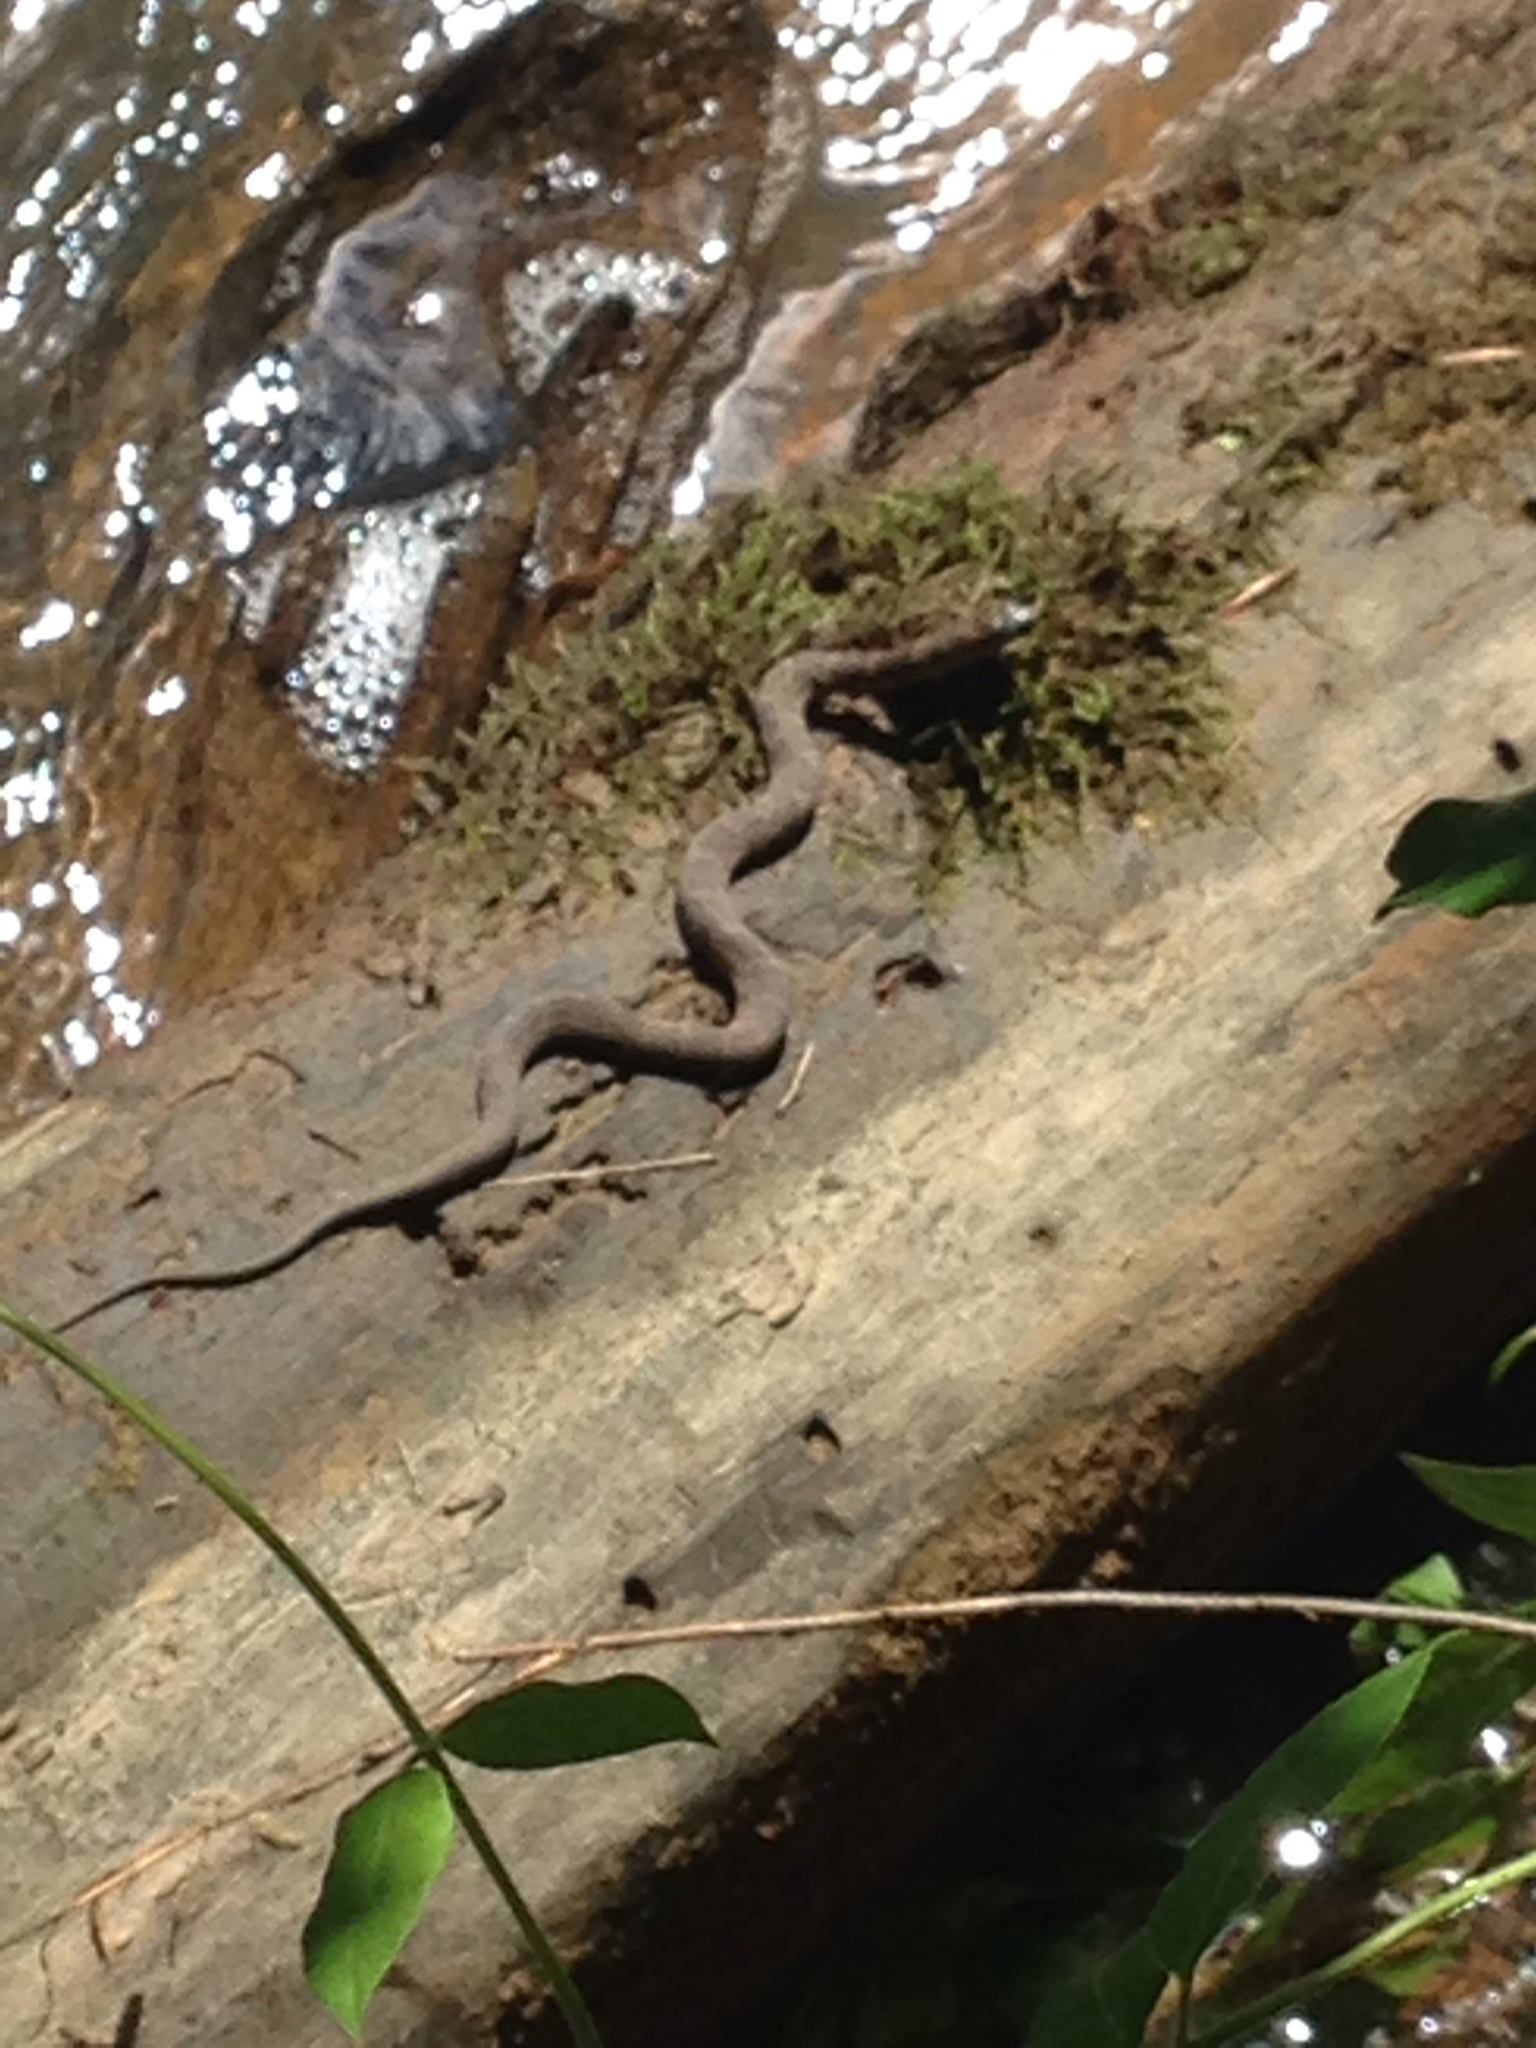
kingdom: Animalia
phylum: Chordata
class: Squamata
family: Colubridae
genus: Nerodia
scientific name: Nerodia sipedon
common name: Northern water snake
